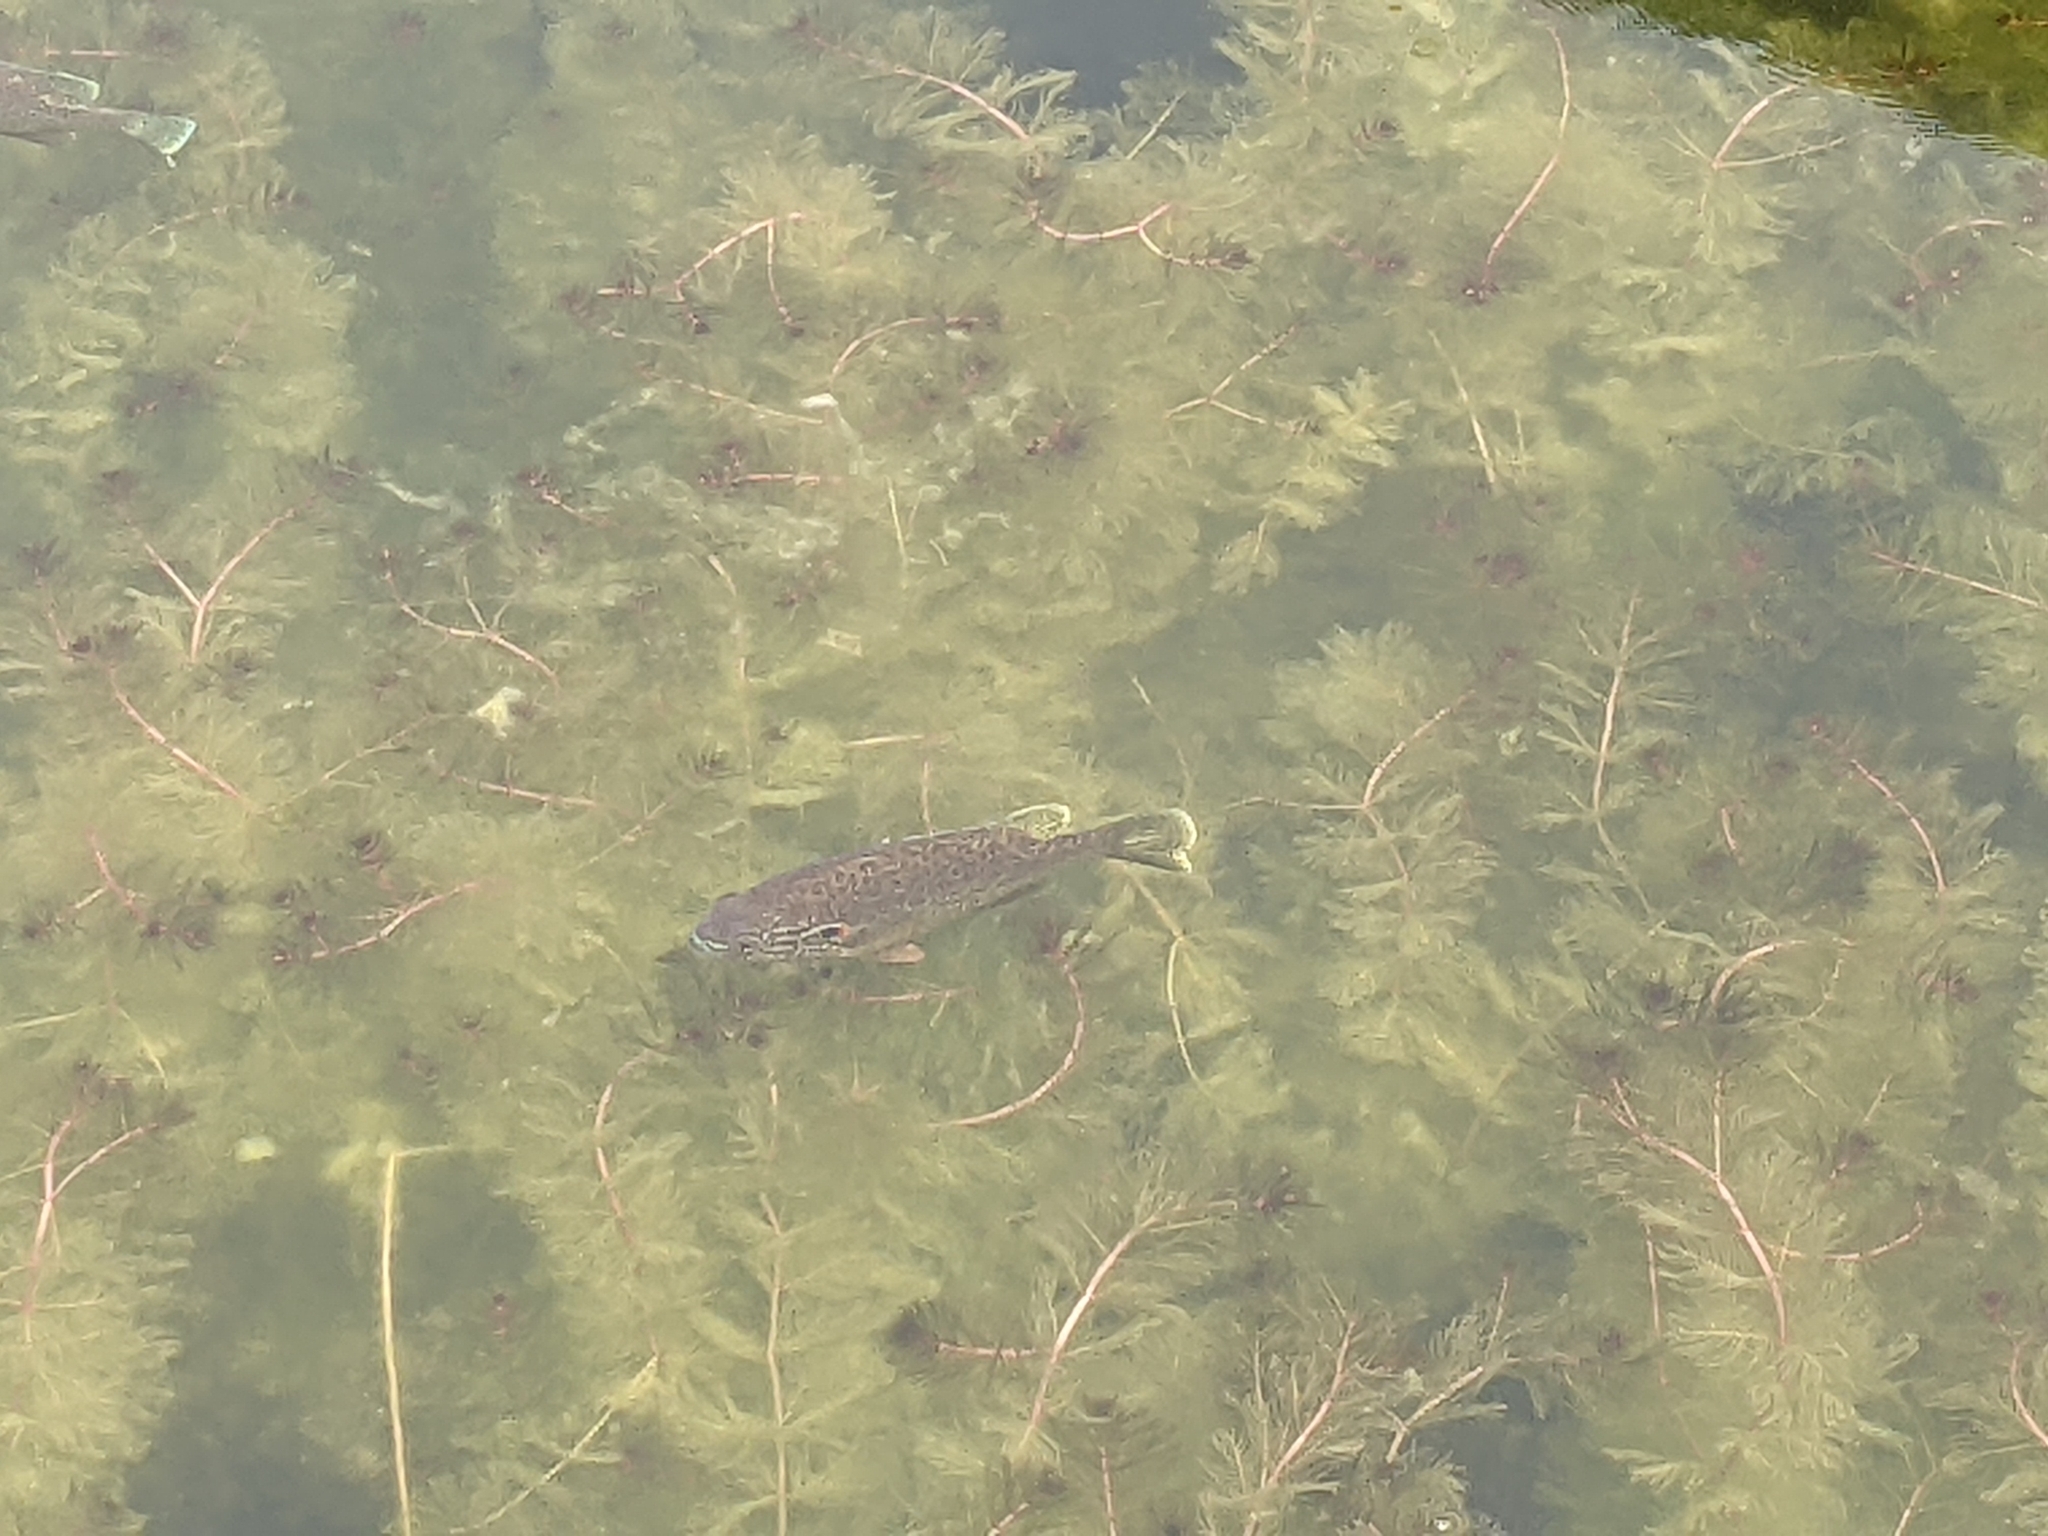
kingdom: Animalia
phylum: Chordata
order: Perciformes
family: Centrarchidae
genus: Lepomis
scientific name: Lepomis gibbosus
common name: Pumpkinseed
